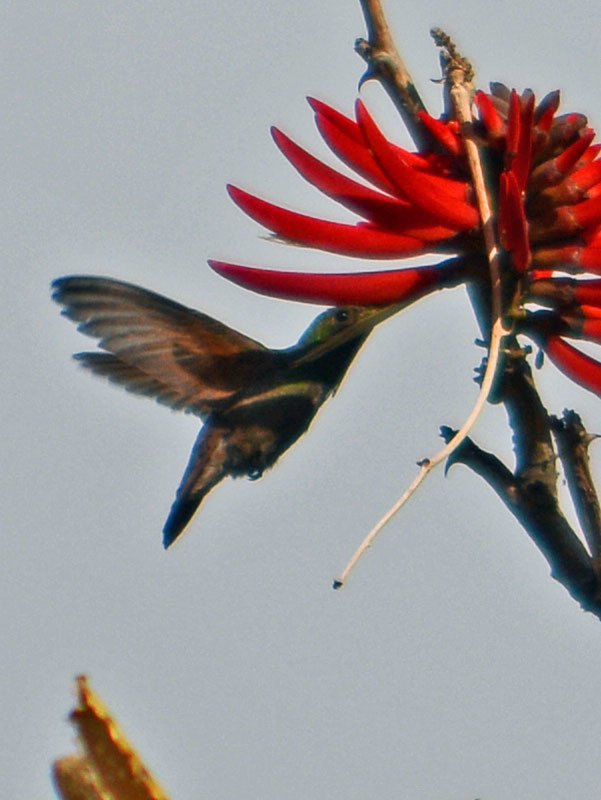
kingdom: Animalia
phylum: Chordata
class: Aves
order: Apodiformes
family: Trochilidae
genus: Saucerottia
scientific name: Saucerottia beryllina
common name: Berylline hummingbird
